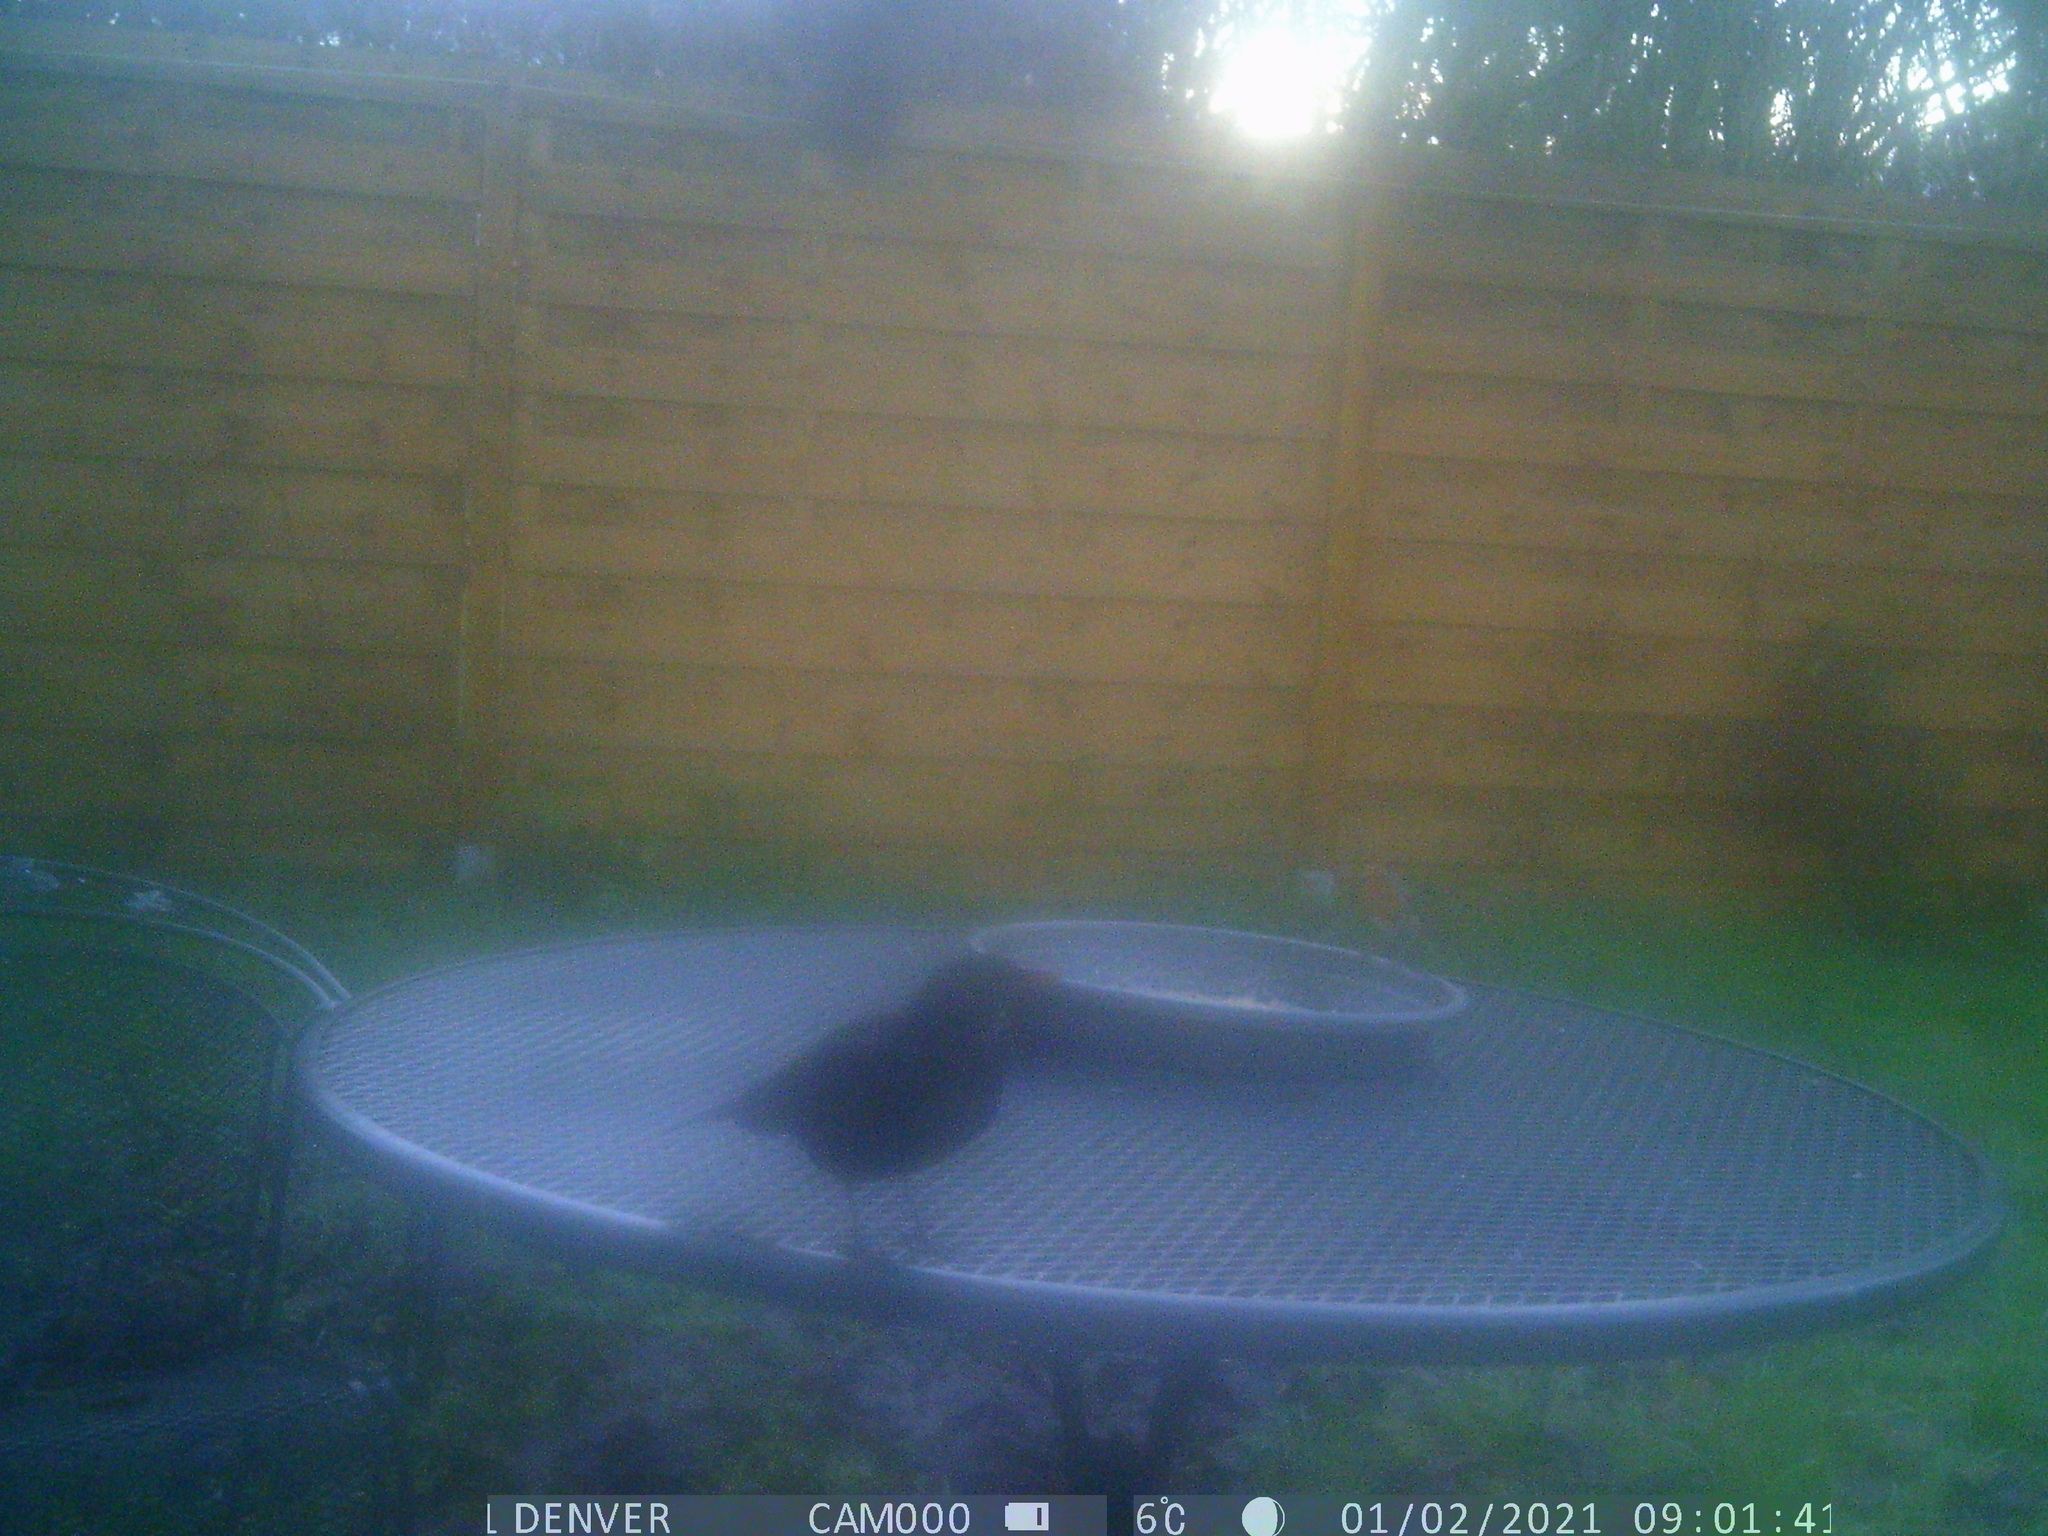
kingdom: Animalia
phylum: Chordata
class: Aves
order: Passeriformes
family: Turdidae
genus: Turdus
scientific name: Turdus merula
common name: Common blackbird
